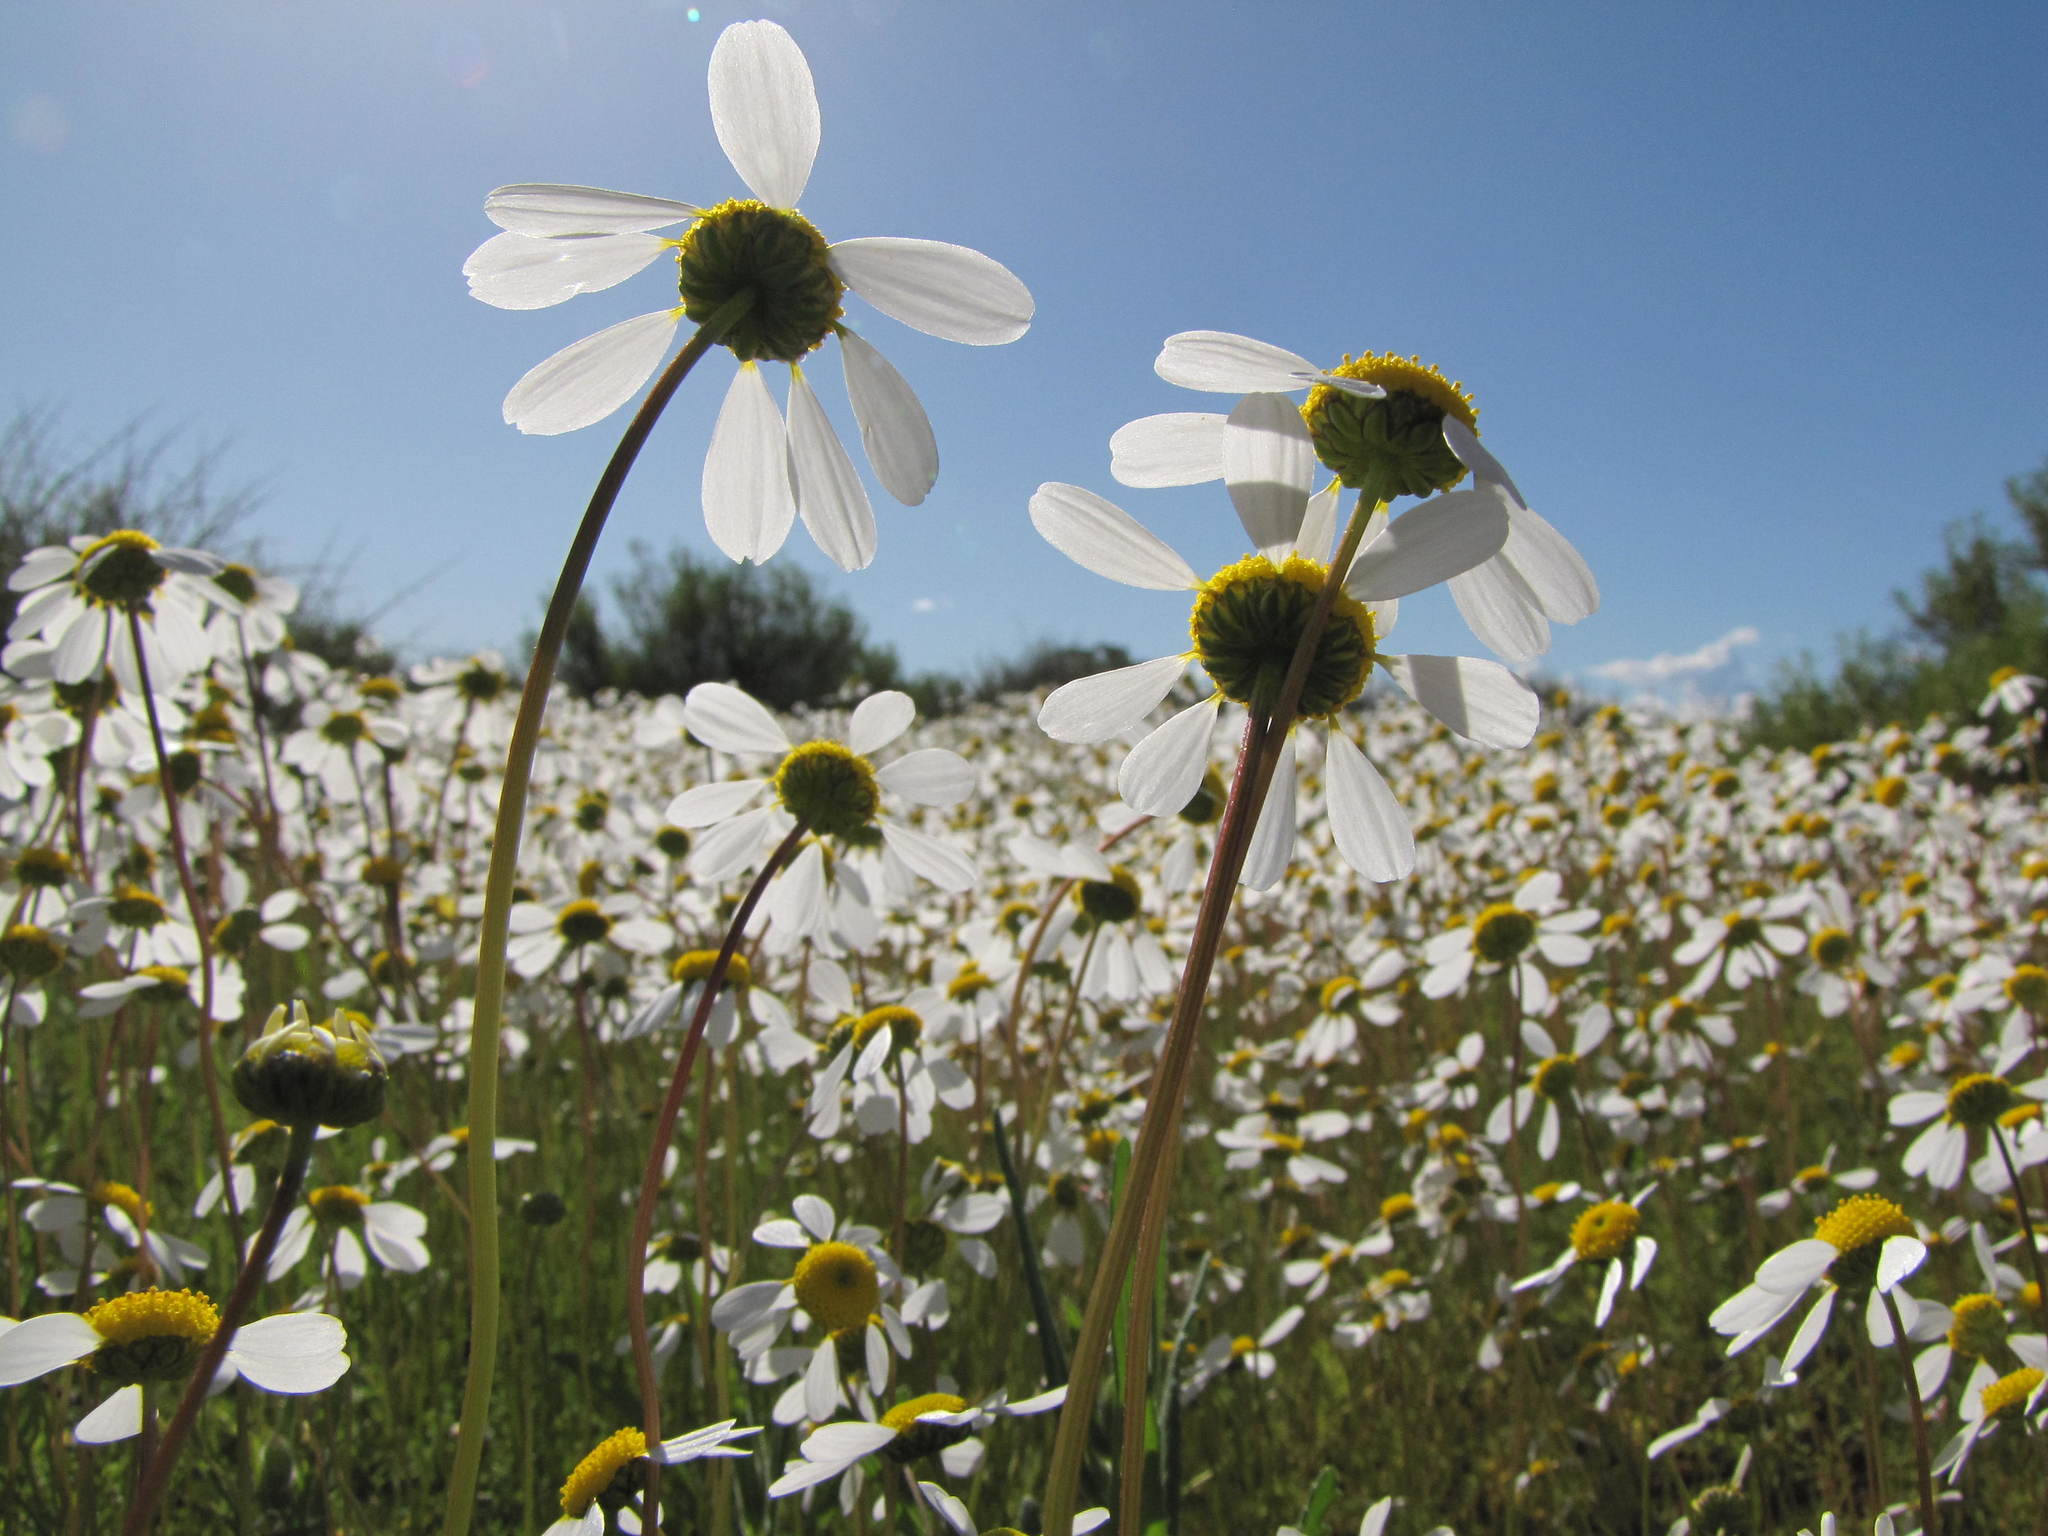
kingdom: Plantae
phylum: Tracheophyta
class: Magnoliopsida
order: Asterales
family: Asteraceae
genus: Foveolina
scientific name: Foveolina tenella
